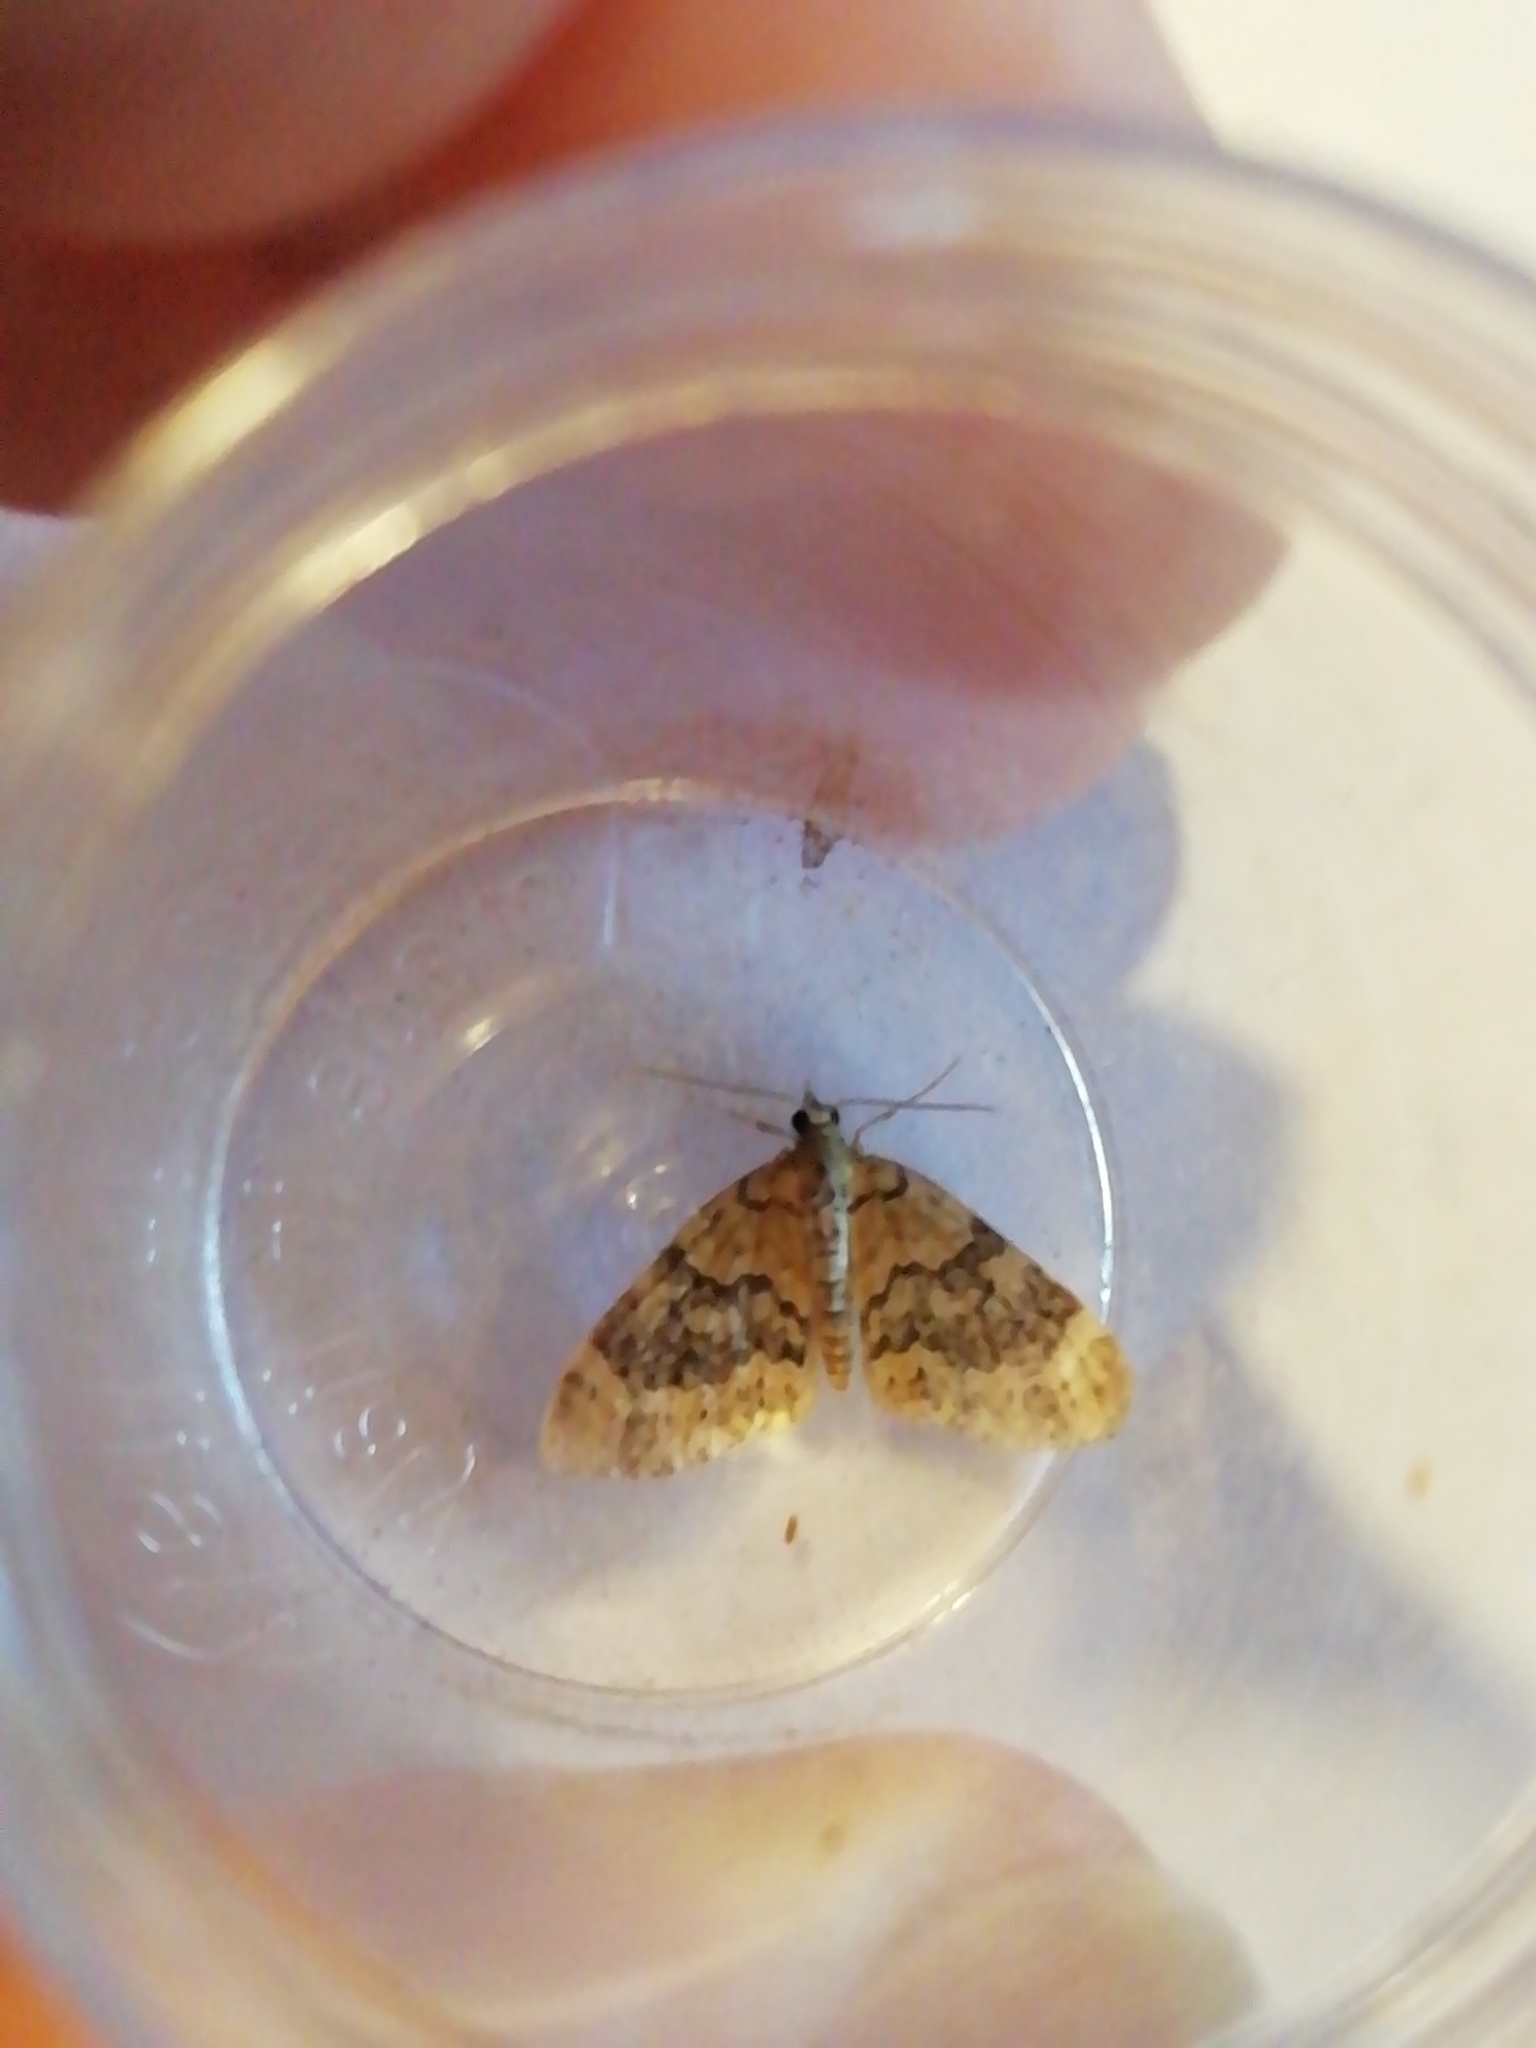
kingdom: Animalia
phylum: Arthropoda
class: Insecta
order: Lepidoptera
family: Geometridae
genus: Acasis
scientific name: Acasis viretata
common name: Yellow-barred brindle
